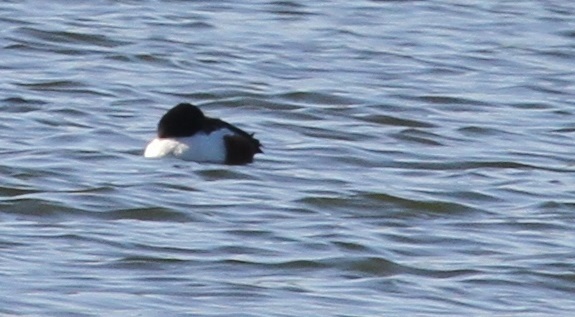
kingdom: Animalia
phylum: Chordata
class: Aves
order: Anseriformes
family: Anatidae
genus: Spatula
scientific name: Spatula clypeata
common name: Northern shoveler
